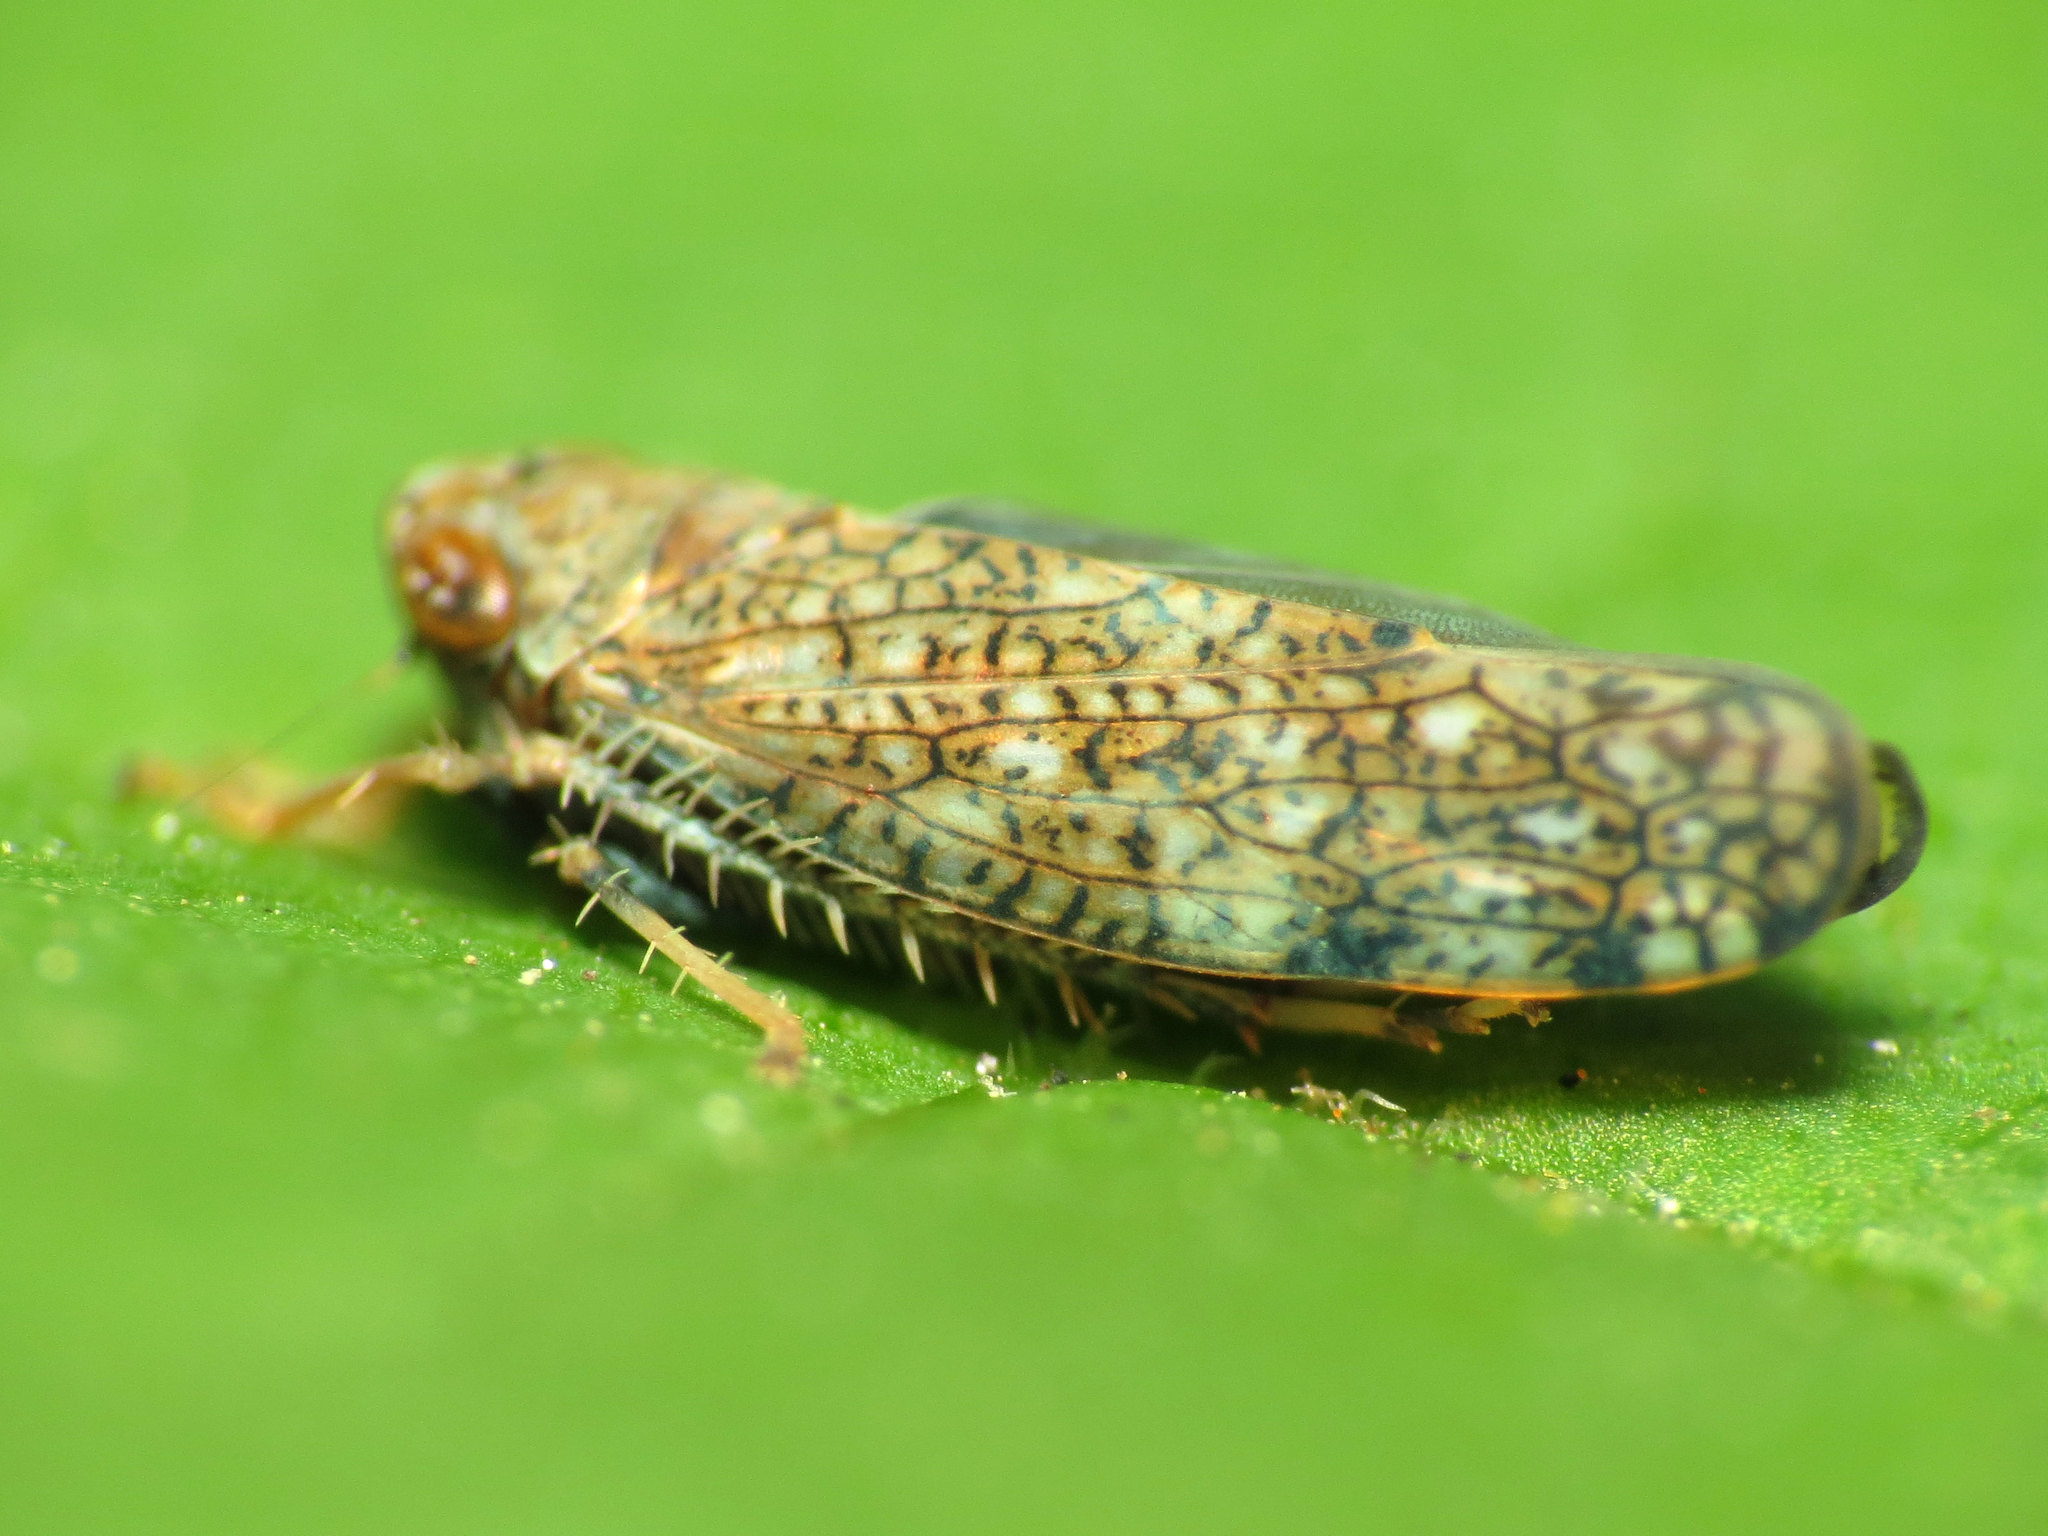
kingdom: Animalia
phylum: Arthropoda
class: Insecta
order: Hemiptera
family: Cicadellidae
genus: Orientus
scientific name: Orientus ishidae
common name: Japanese leafhopper
